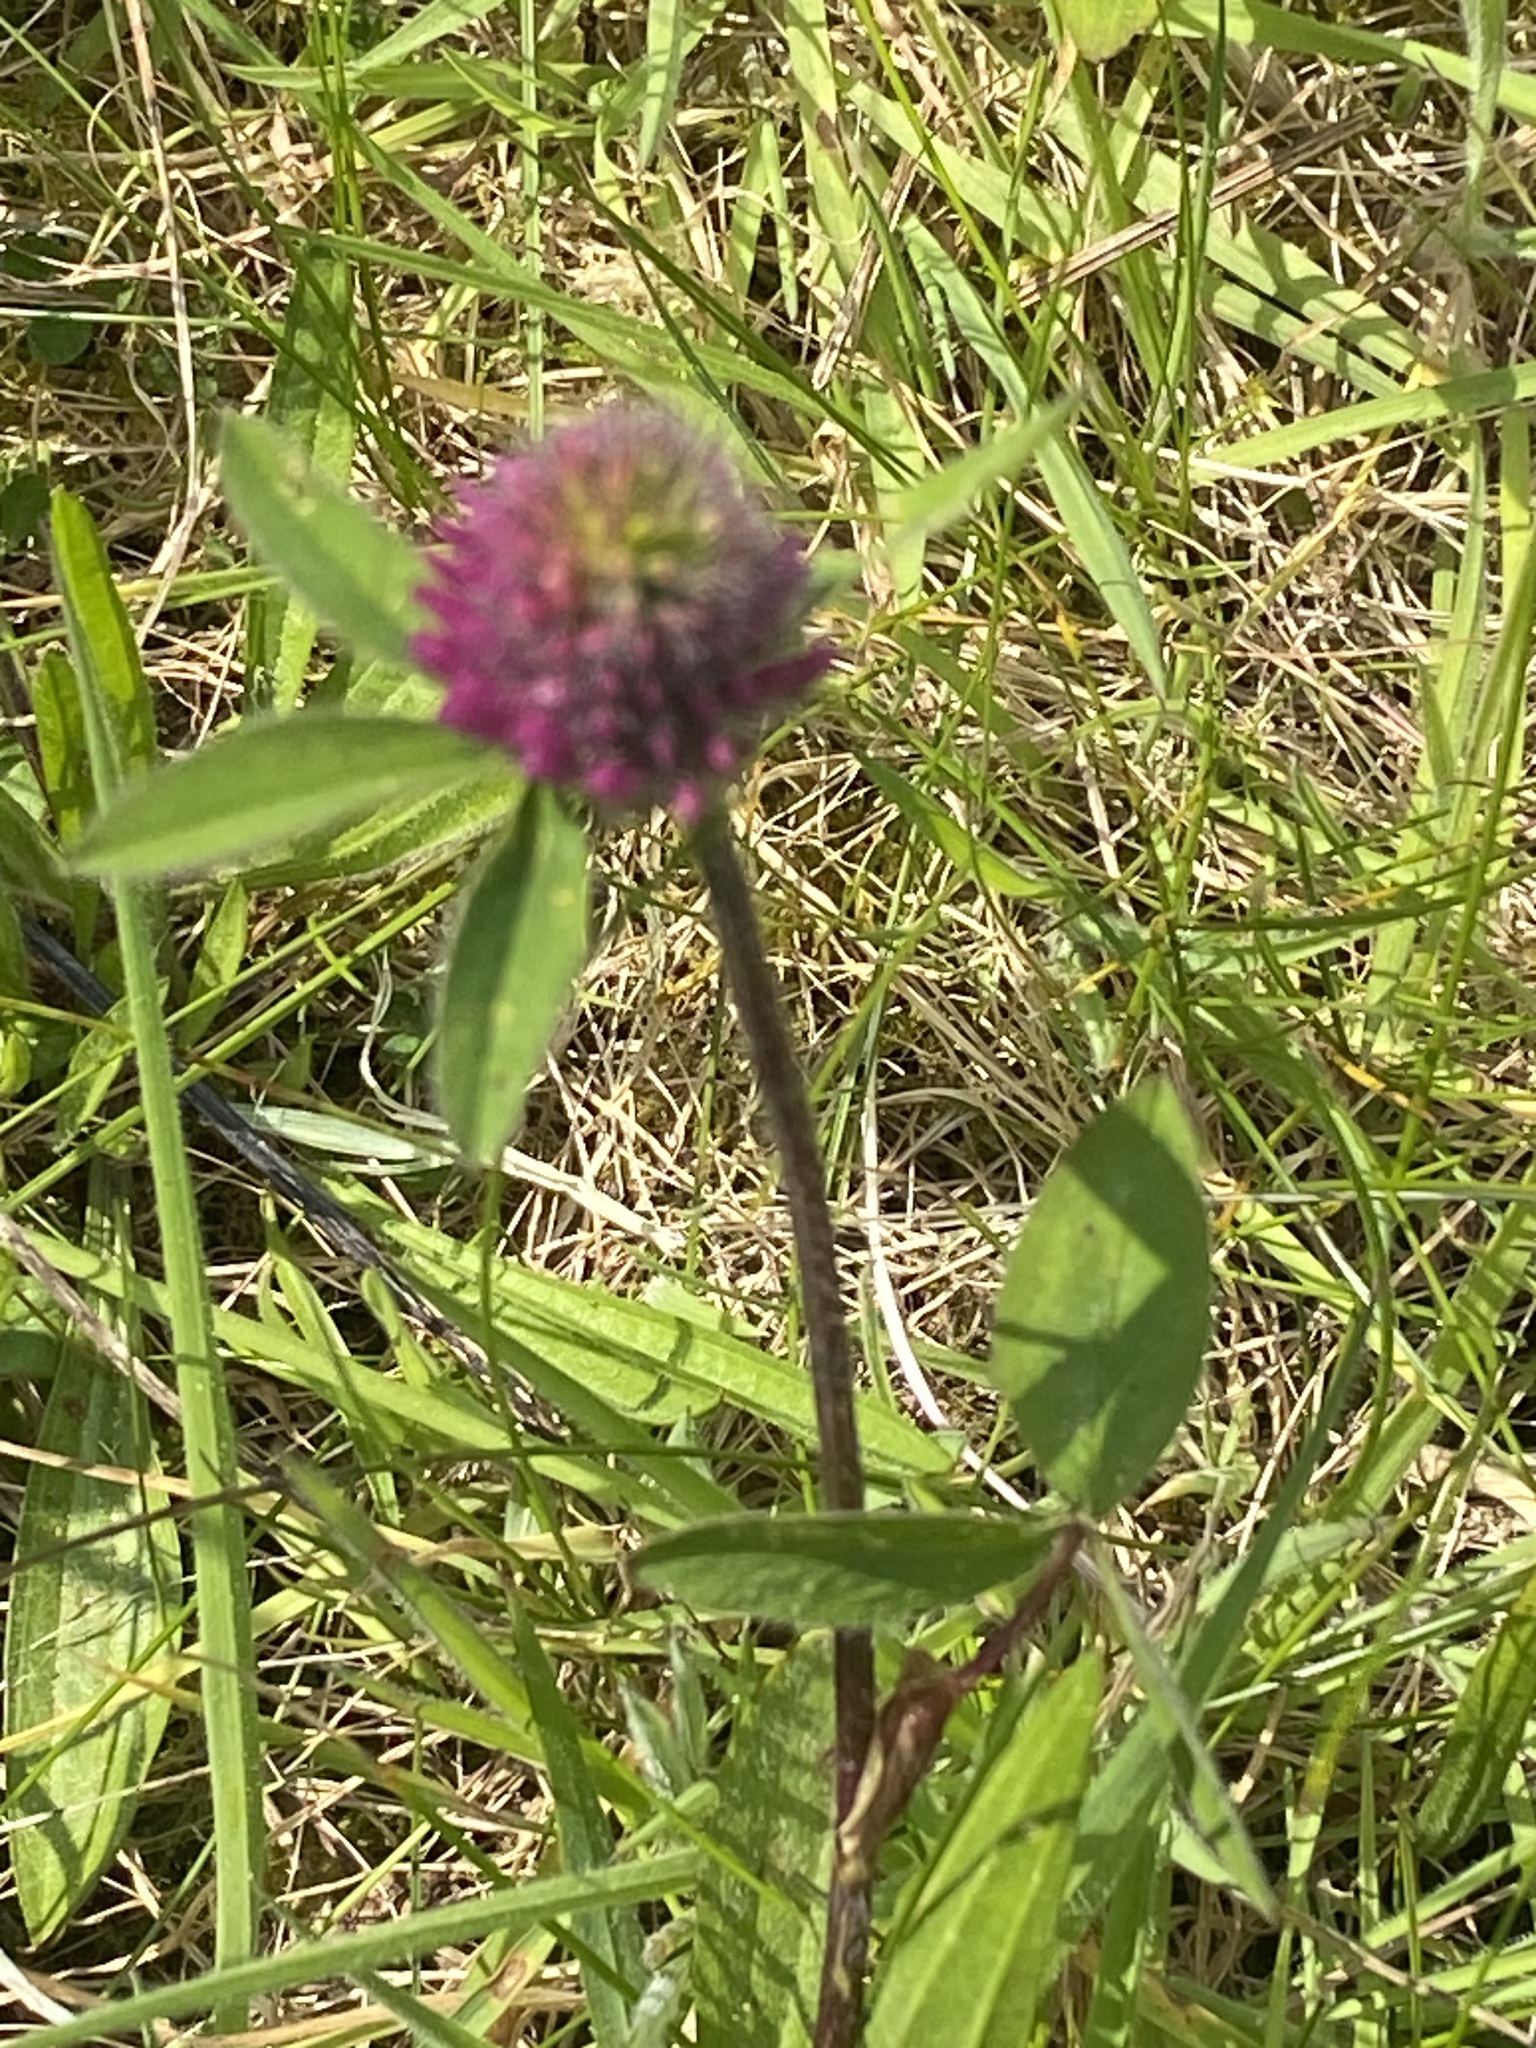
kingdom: Plantae
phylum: Tracheophyta
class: Magnoliopsida
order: Fabales
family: Fabaceae
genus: Trifolium
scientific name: Trifolium pratense
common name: Red clover
